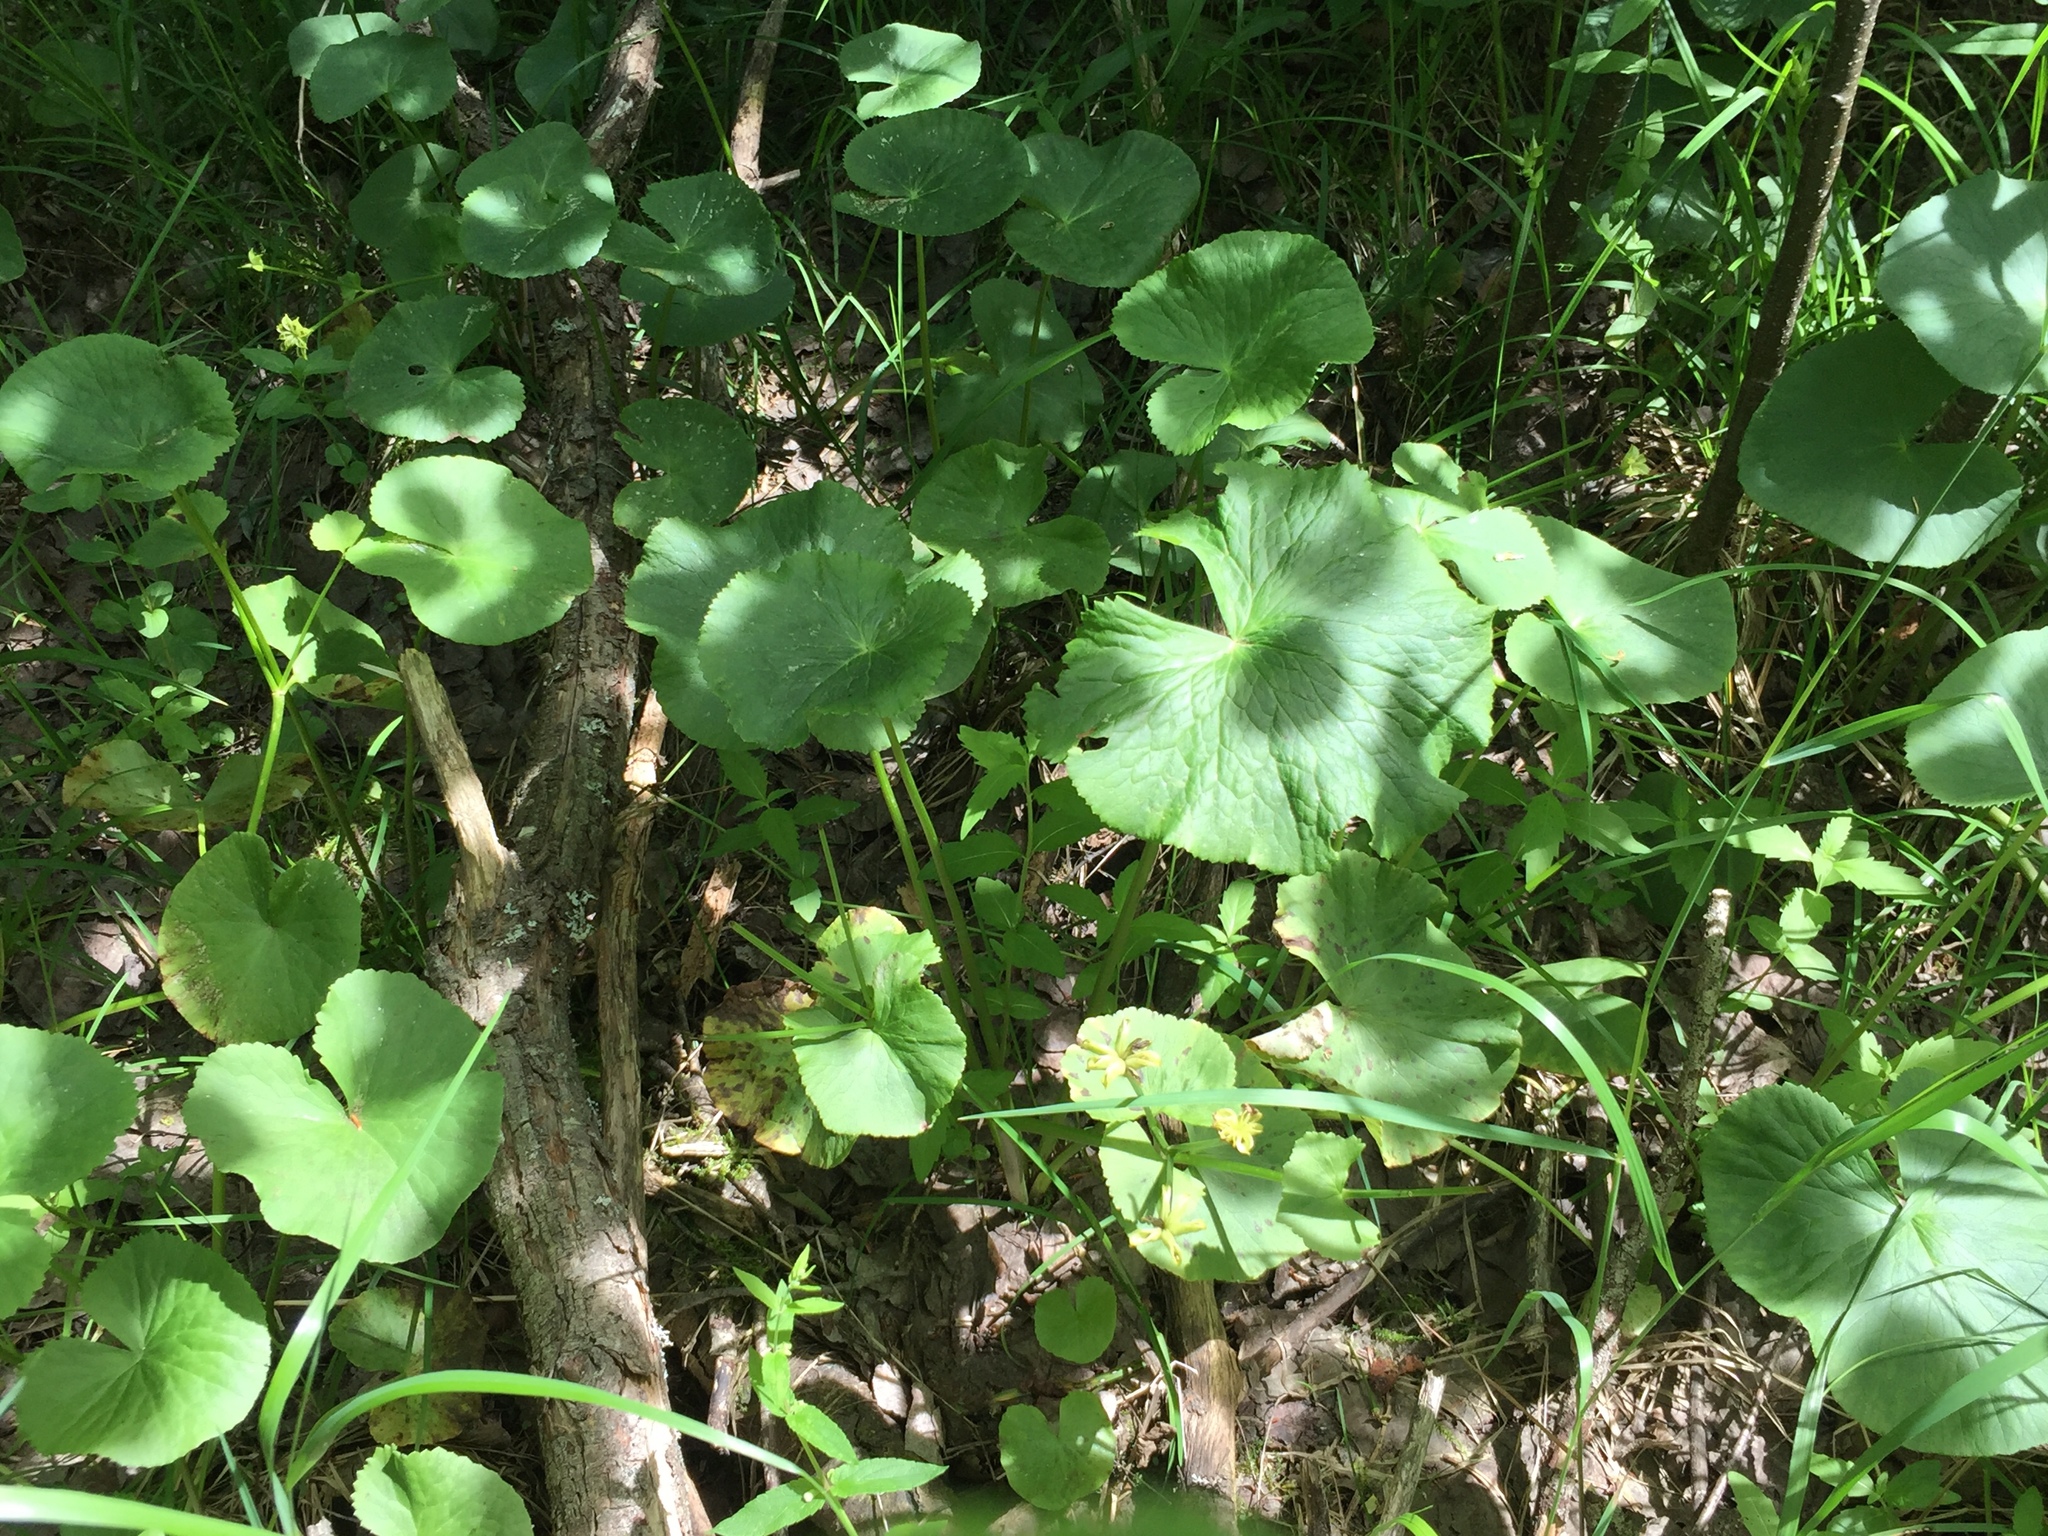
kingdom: Plantae
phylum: Tracheophyta
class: Magnoliopsida
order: Ranunculales
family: Ranunculaceae
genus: Caltha
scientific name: Caltha palustris
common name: Marsh marigold
